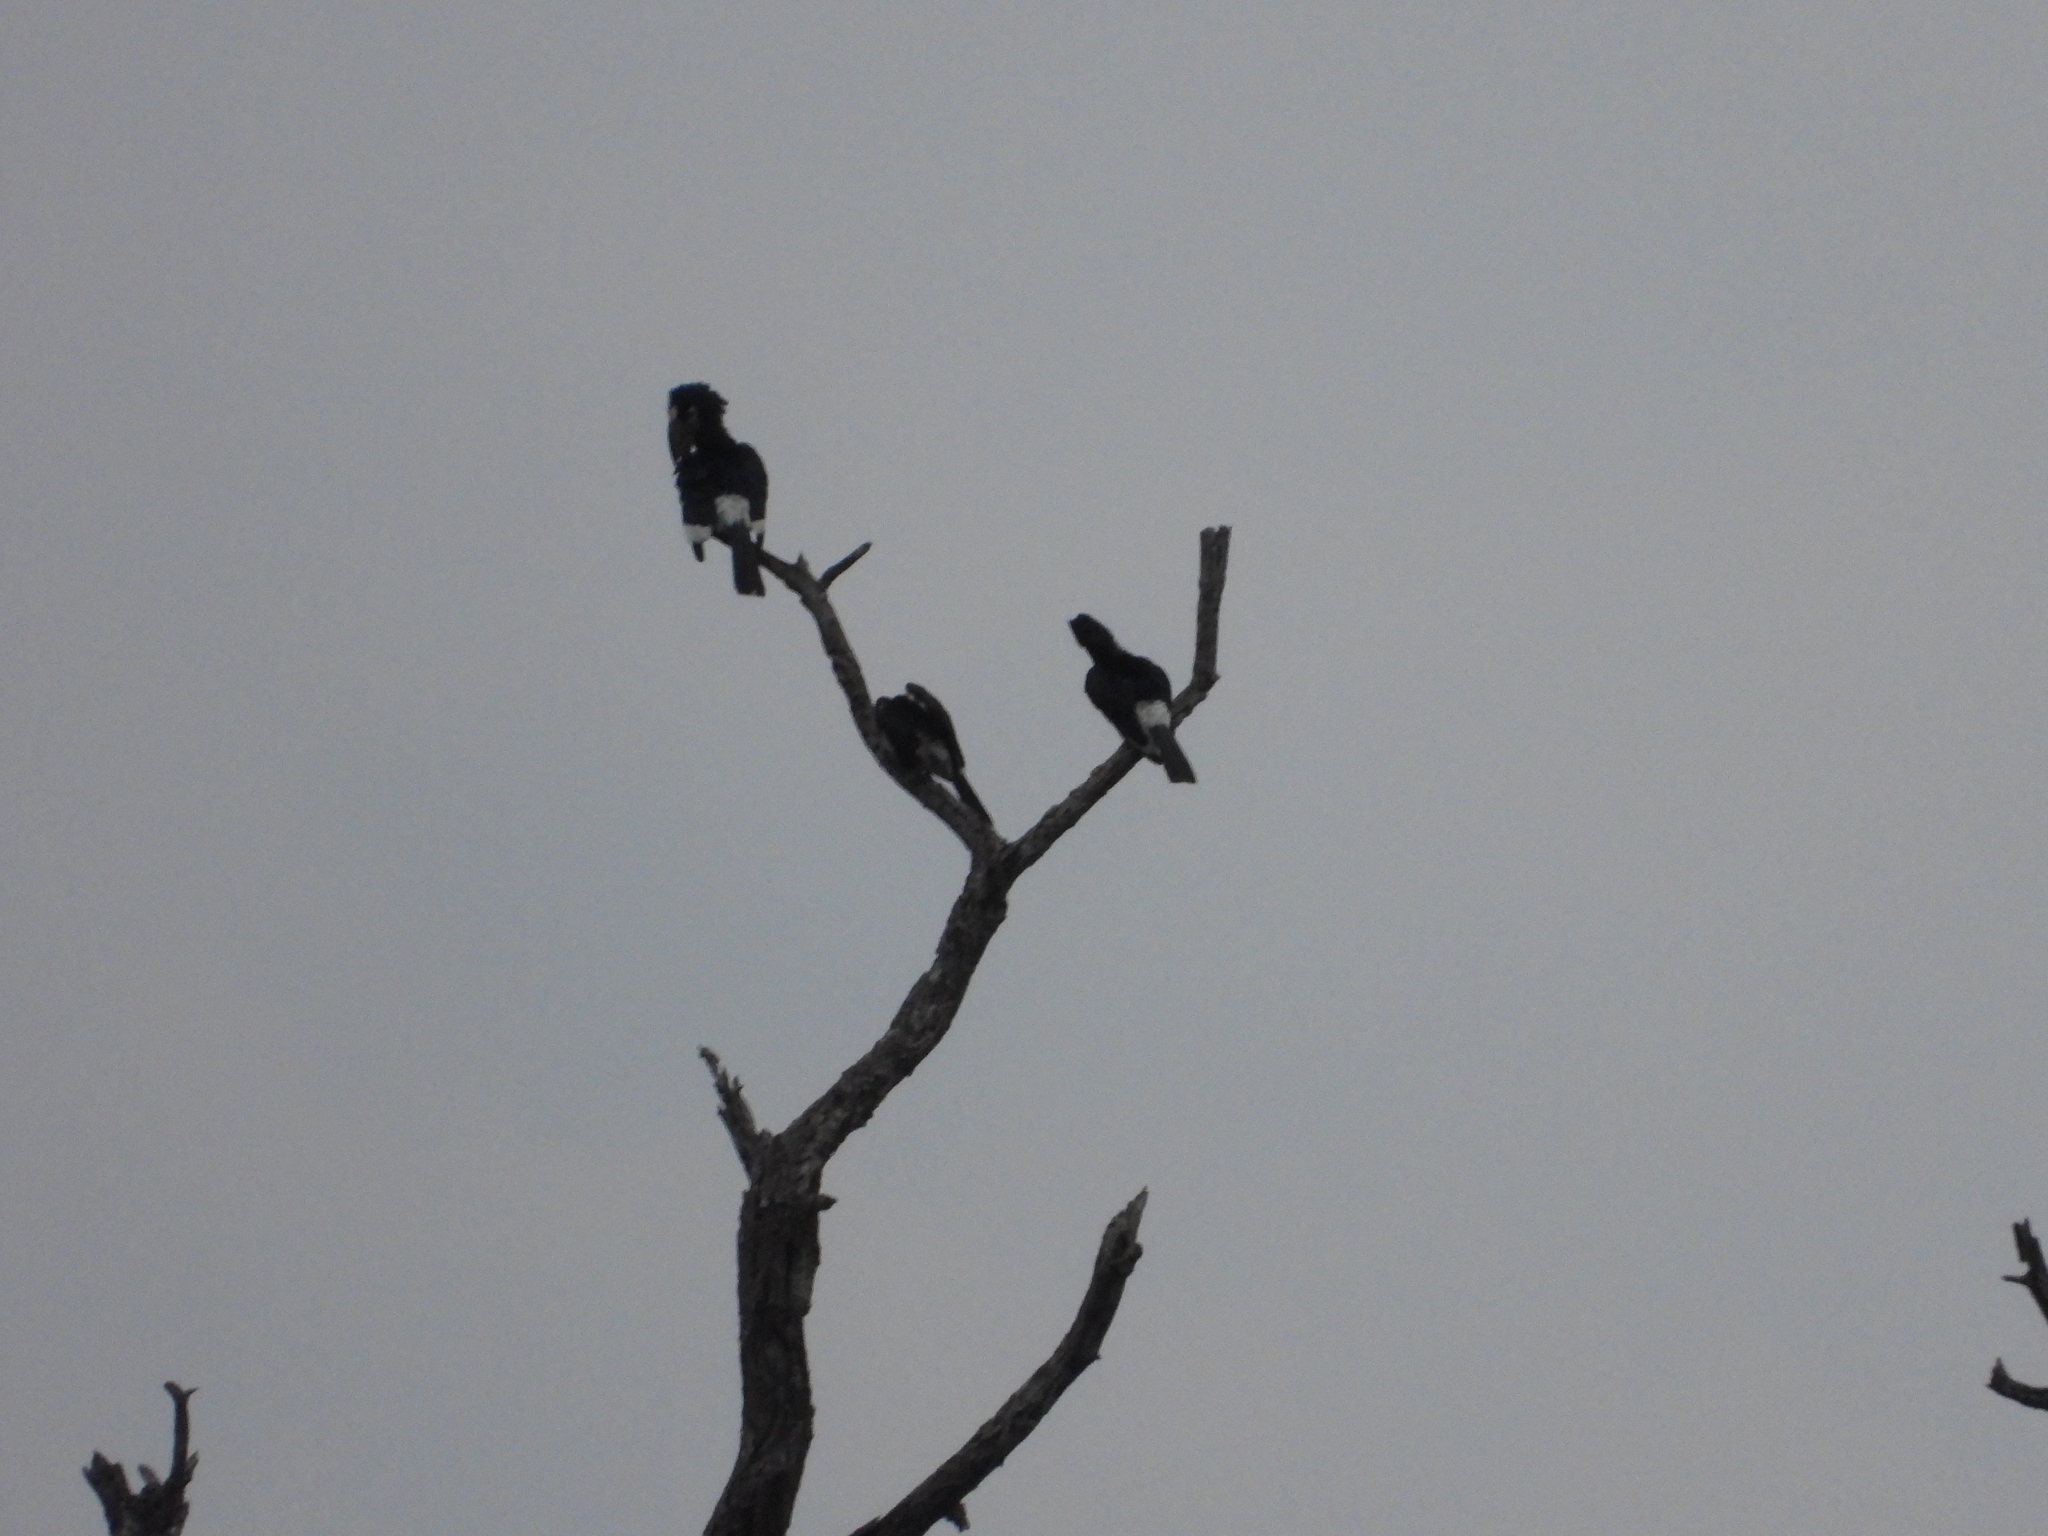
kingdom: Animalia
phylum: Chordata
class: Aves
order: Bucerotiformes
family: Bucerotidae
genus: Bycanistes
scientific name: Bycanistes bucinator
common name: Trumpeter hornbill
